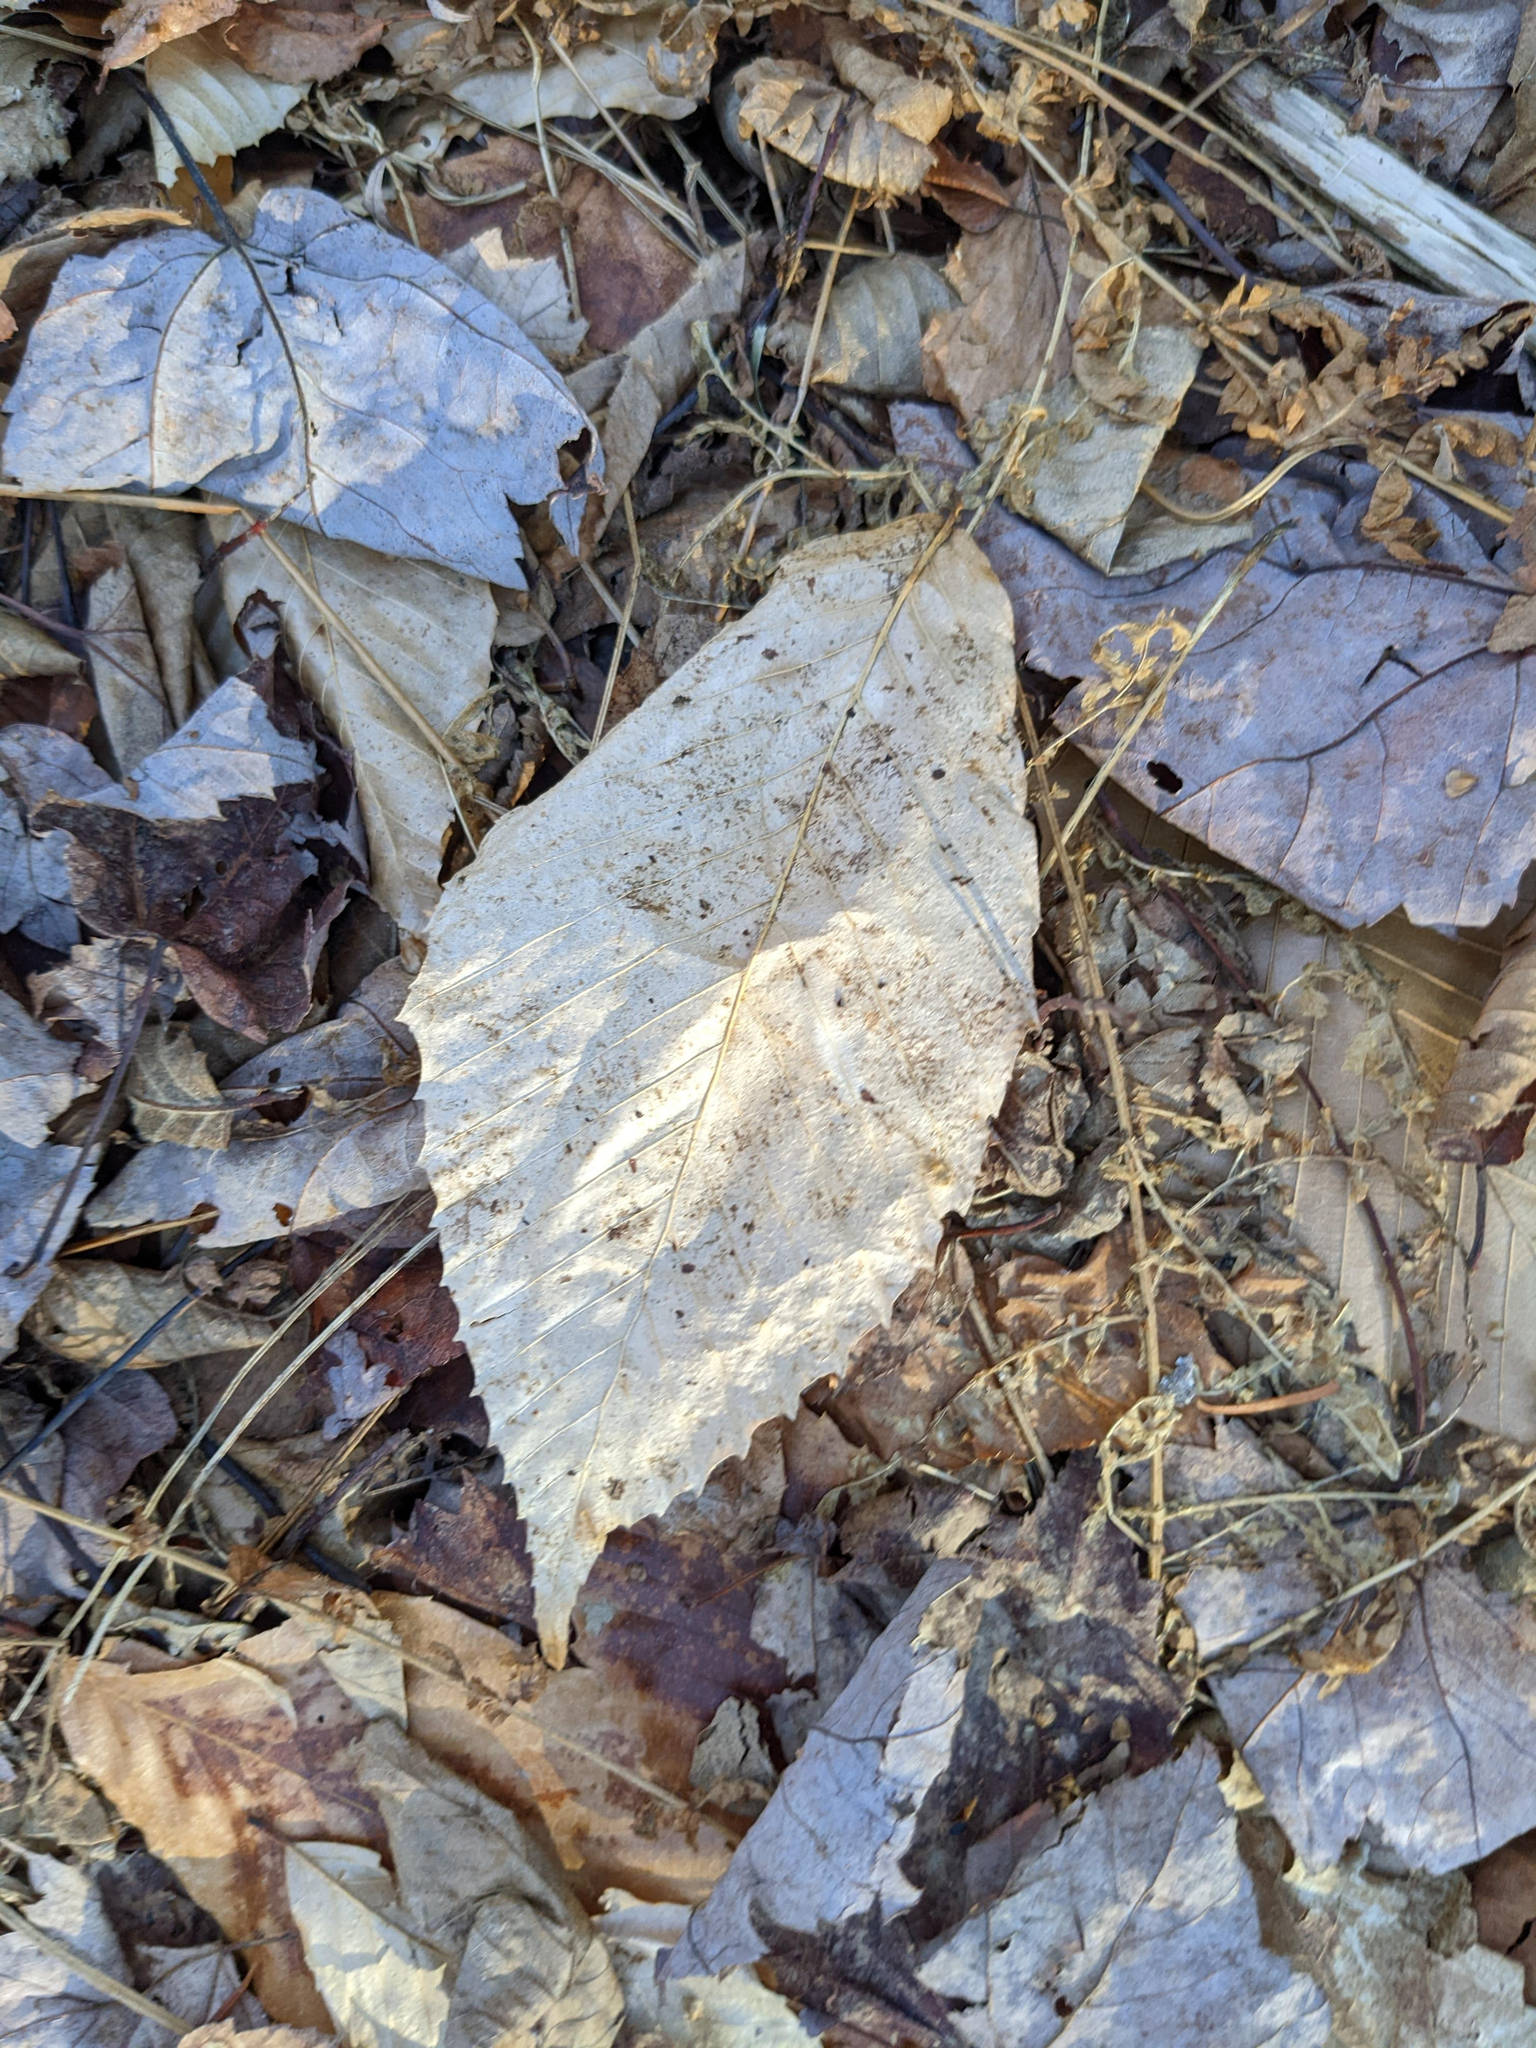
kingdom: Plantae
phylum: Tracheophyta
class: Magnoliopsida
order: Fagales
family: Fagaceae
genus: Fagus
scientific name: Fagus grandifolia
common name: American beech
